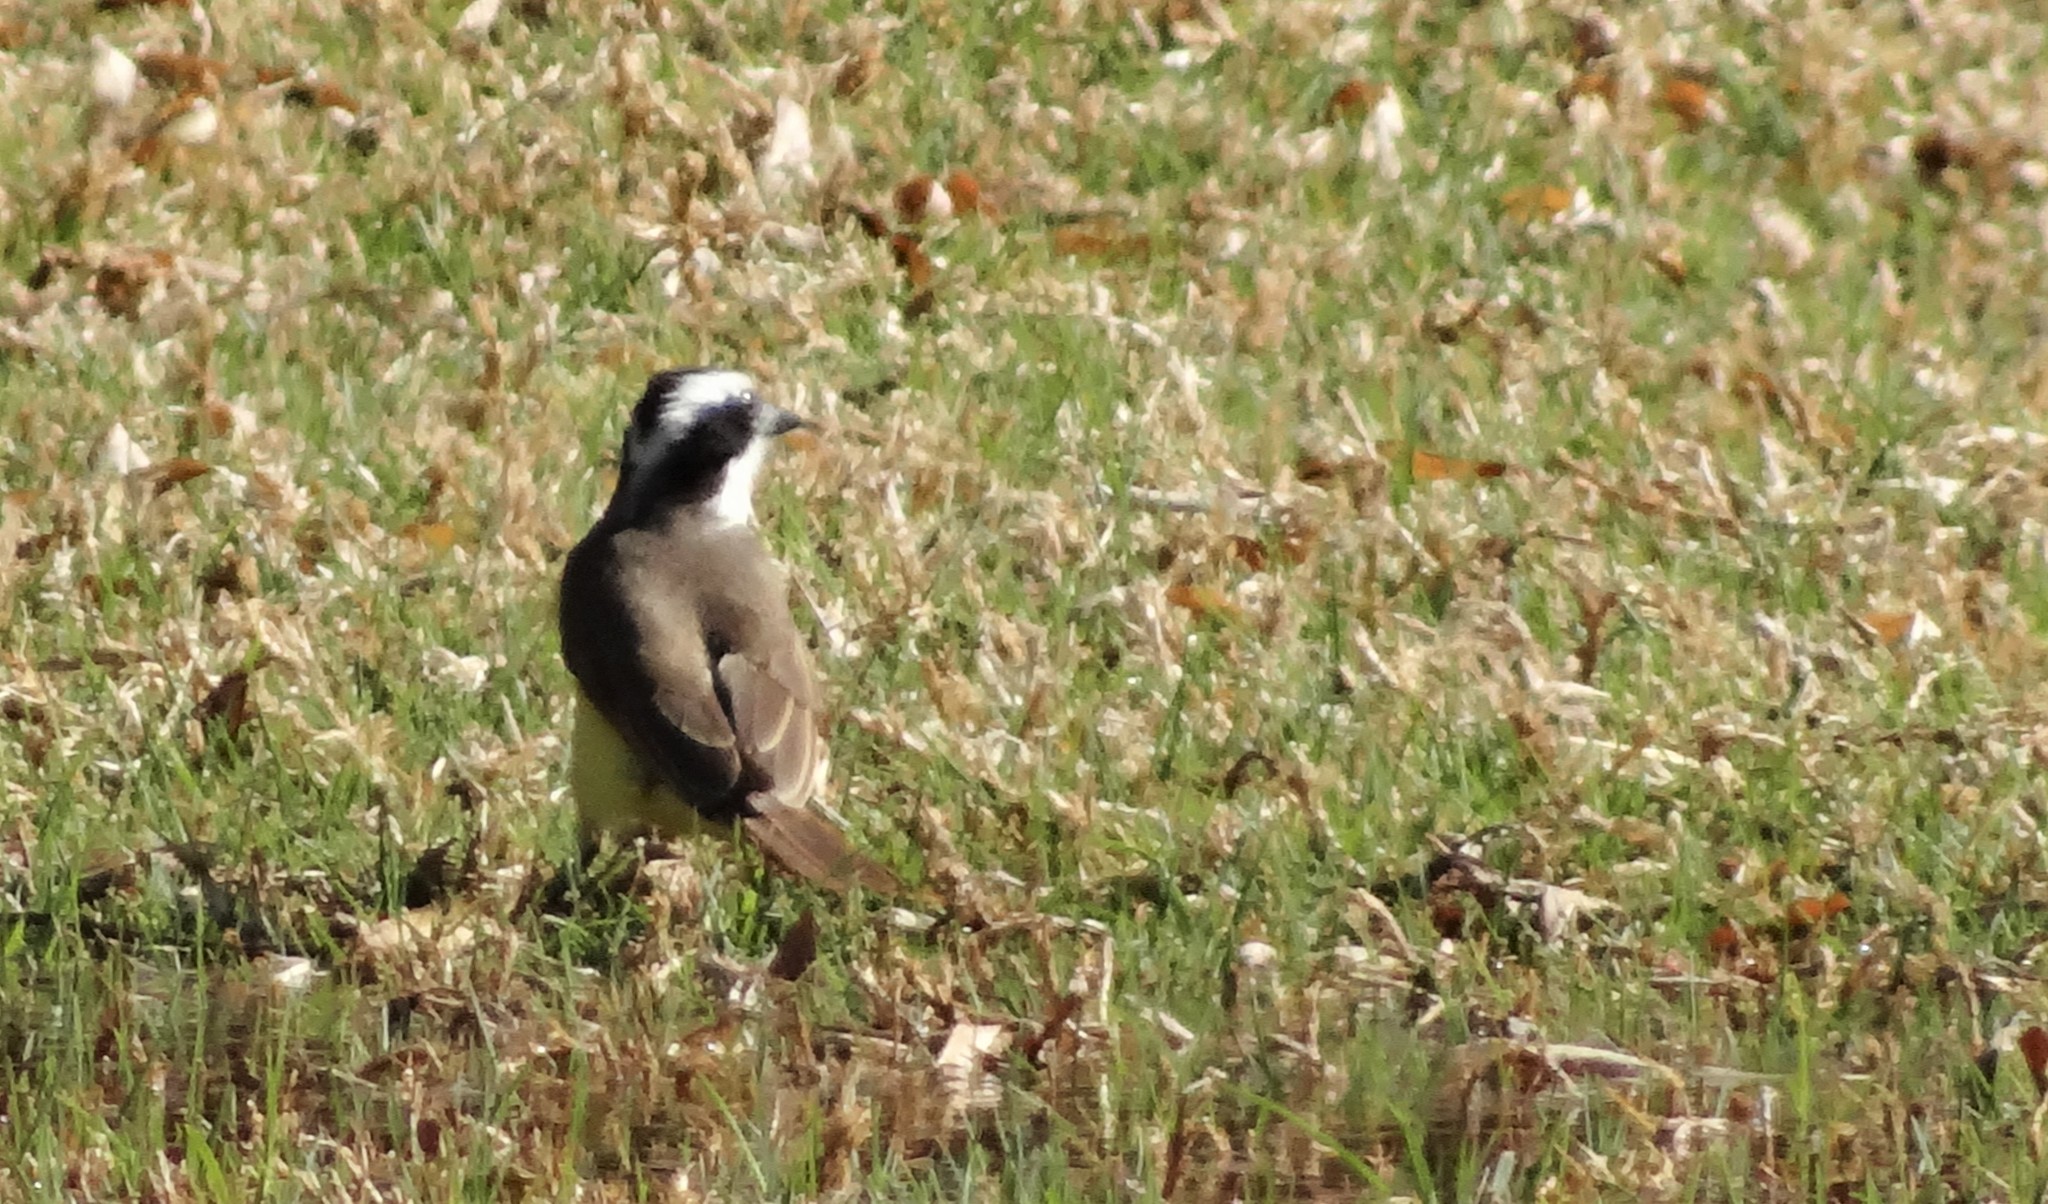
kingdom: Animalia
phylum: Chordata
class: Aves
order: Passeriformes
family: Tyrannidae
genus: Pitangus
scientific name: Pitangus sulphuratus
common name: Great kiskadee
